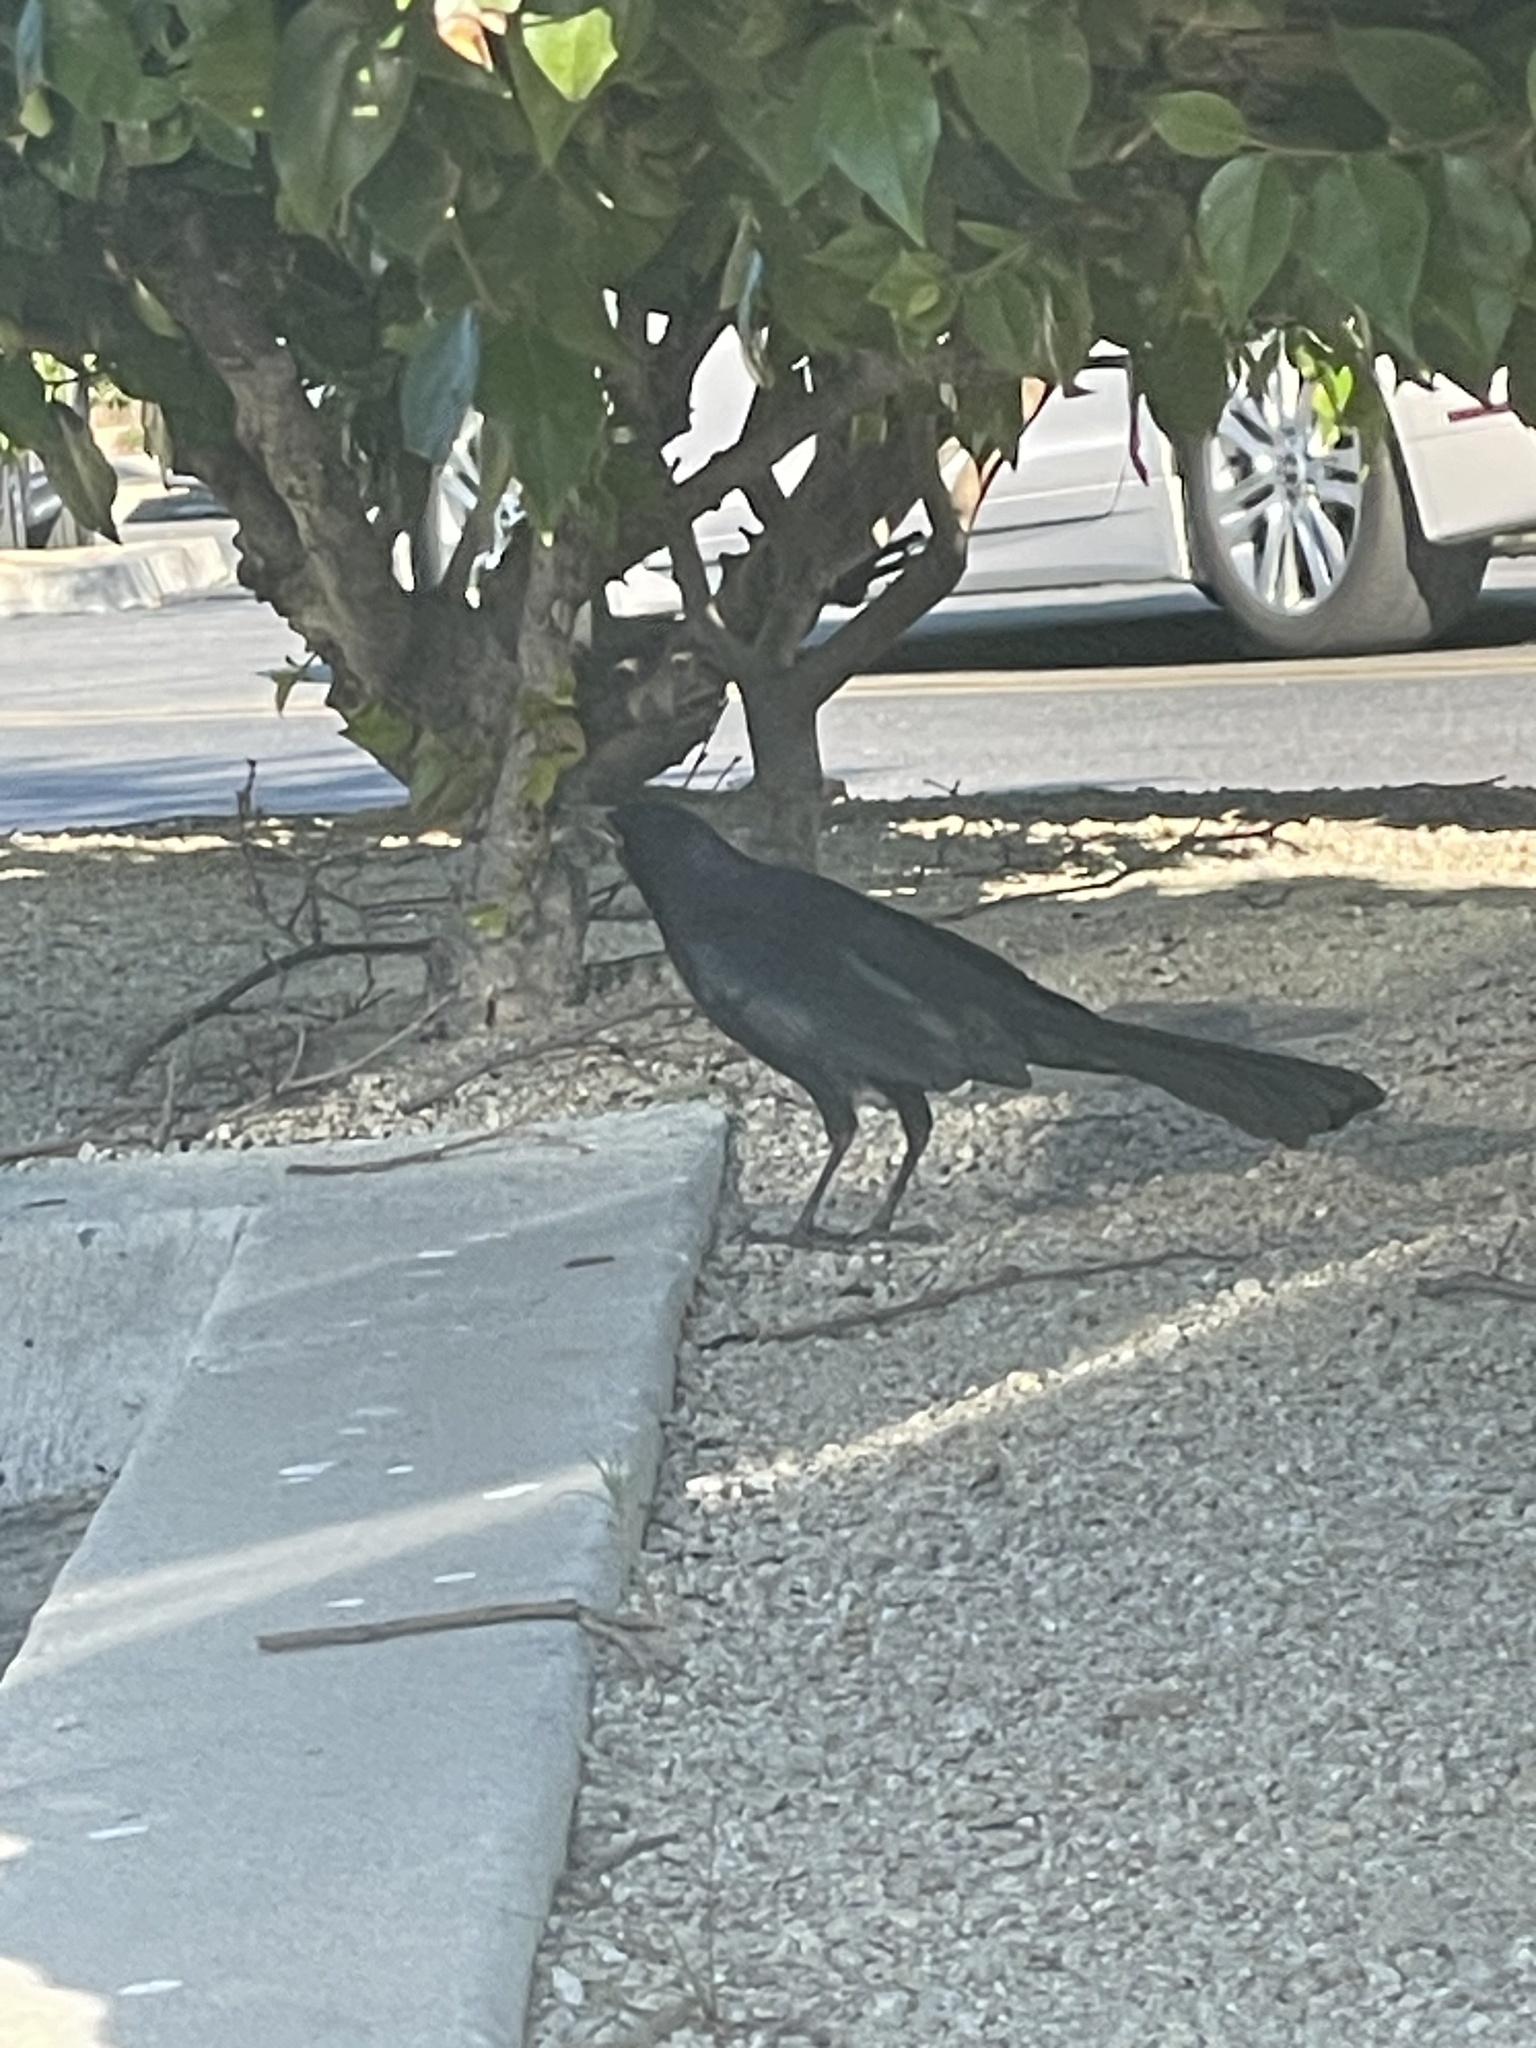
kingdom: Animalia
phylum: Chordata
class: Aves
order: Passeriformes
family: Icteridae
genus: Quiscalus
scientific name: Quiscalus mexicanus
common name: Great-tailed grackle
